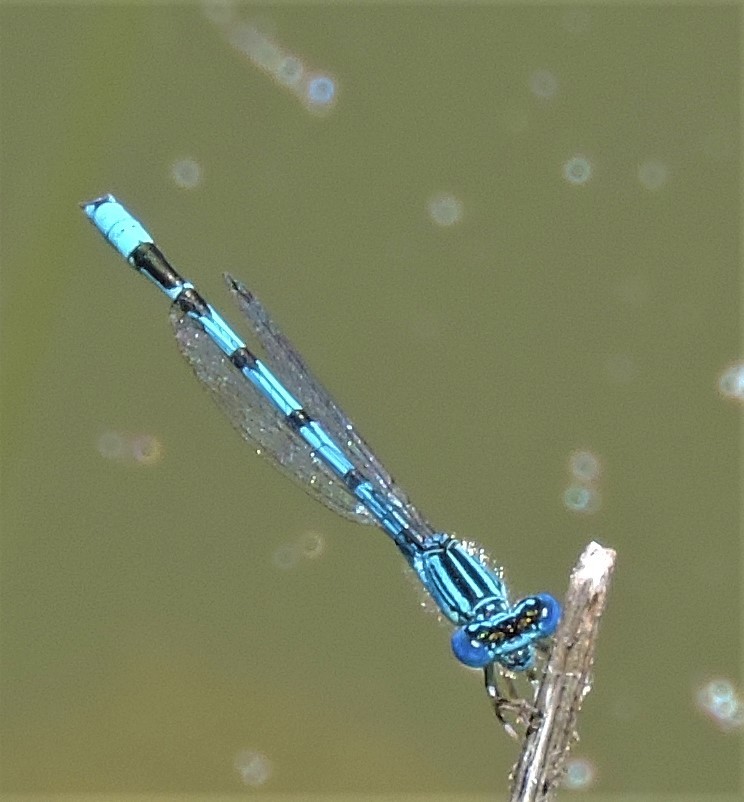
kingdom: Animalia
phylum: Arthropoda
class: Insecta
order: Odonata
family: Coenagrionidae
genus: Enallagma
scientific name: Enallagma basidens
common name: Double-striped bluet
